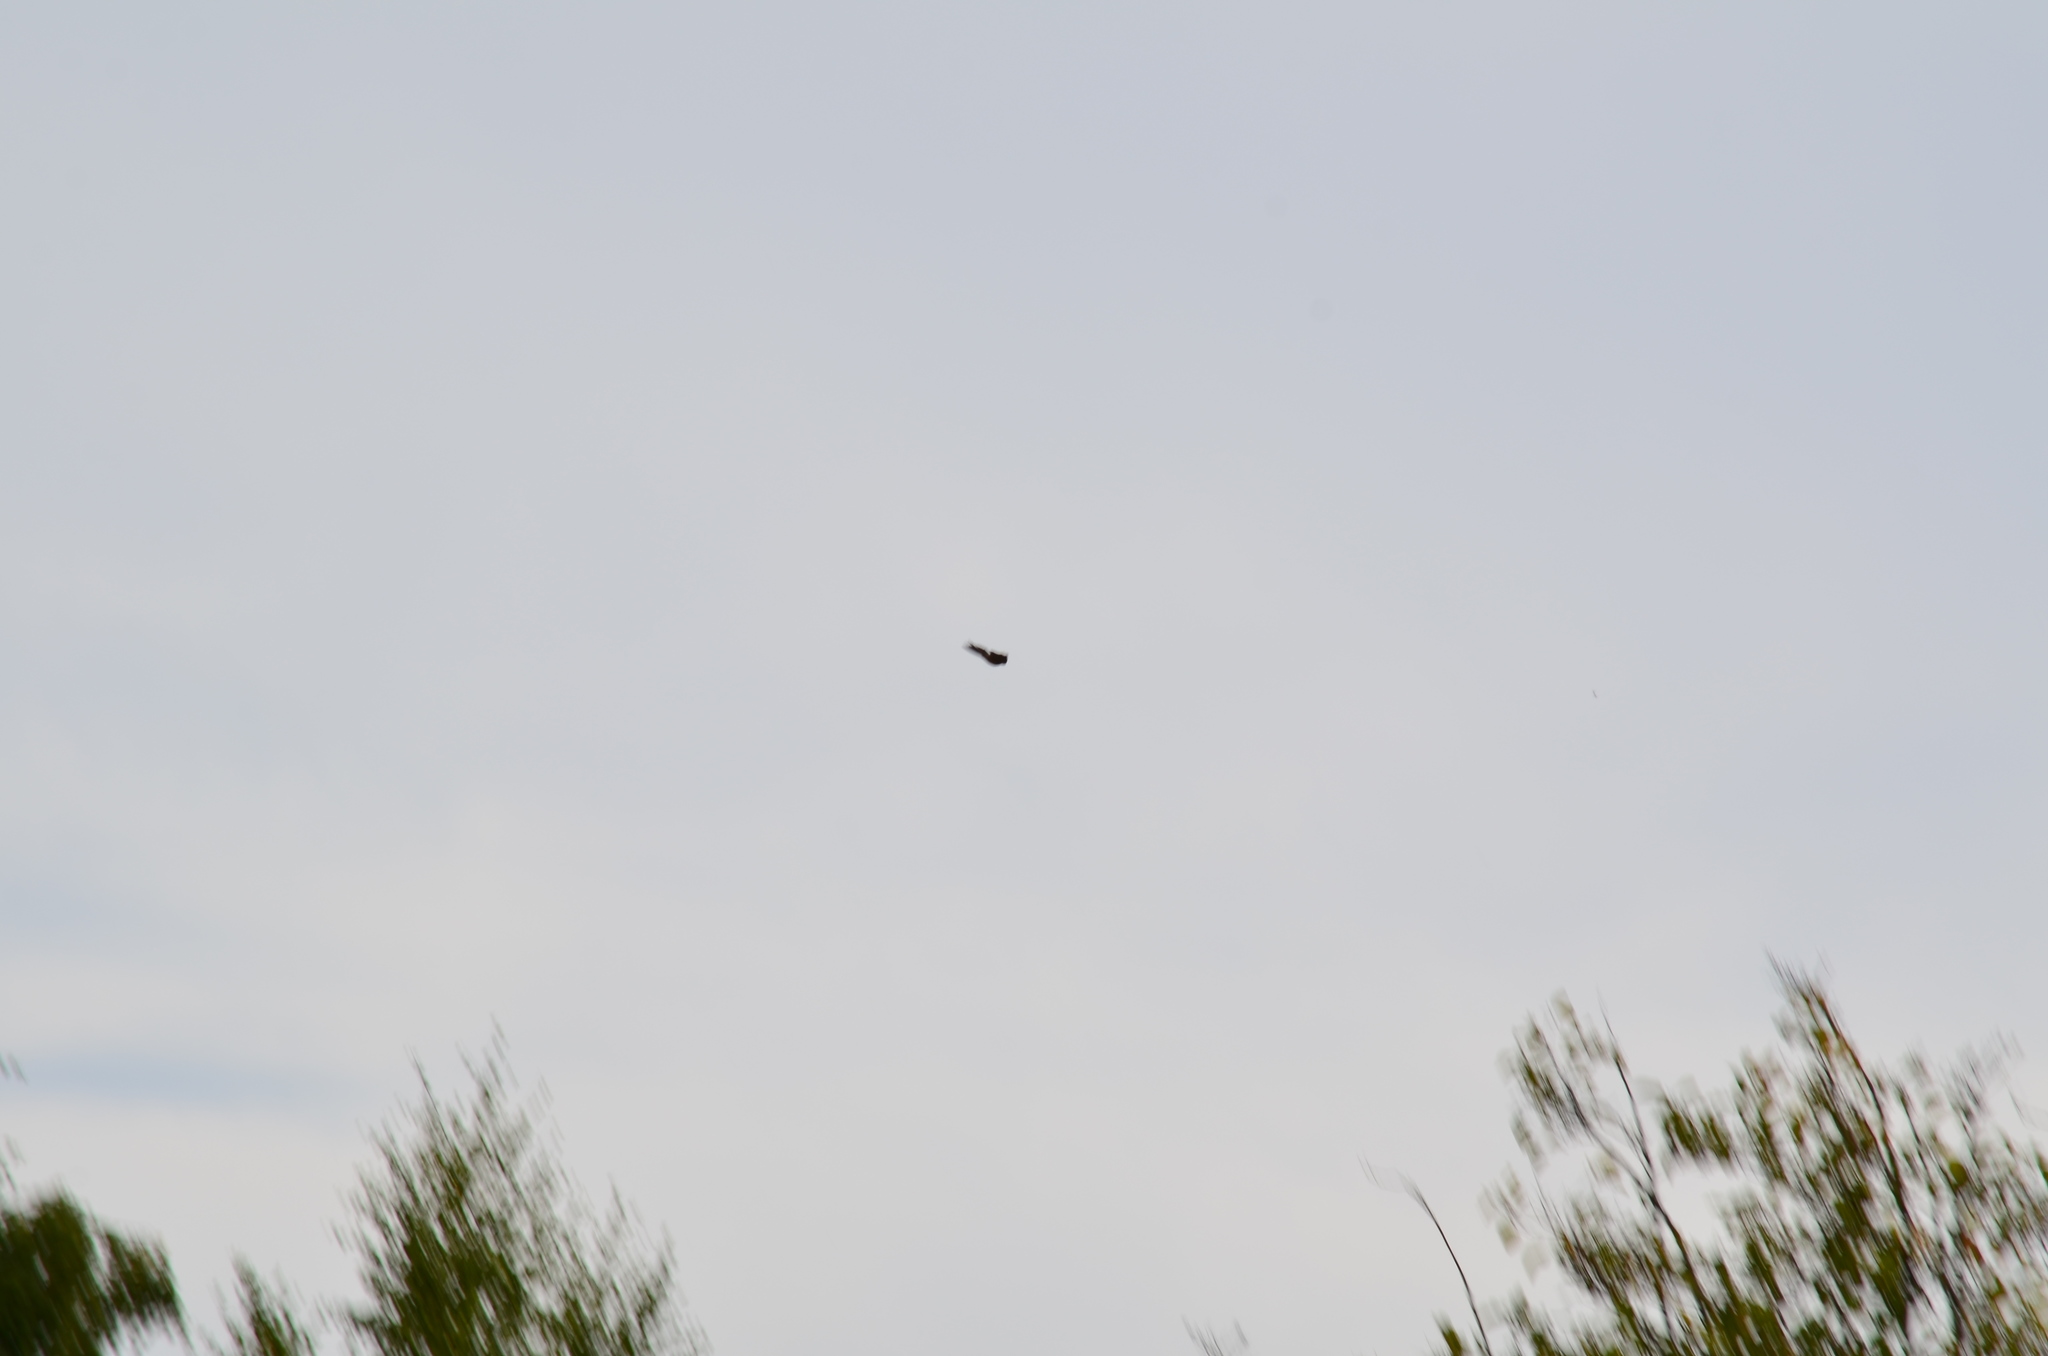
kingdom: Animalia
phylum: Chordata
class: Aves
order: Passeriformes
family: Hirundinidae
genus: Hirundo
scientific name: Hirundo rustica
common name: Barn swallow
